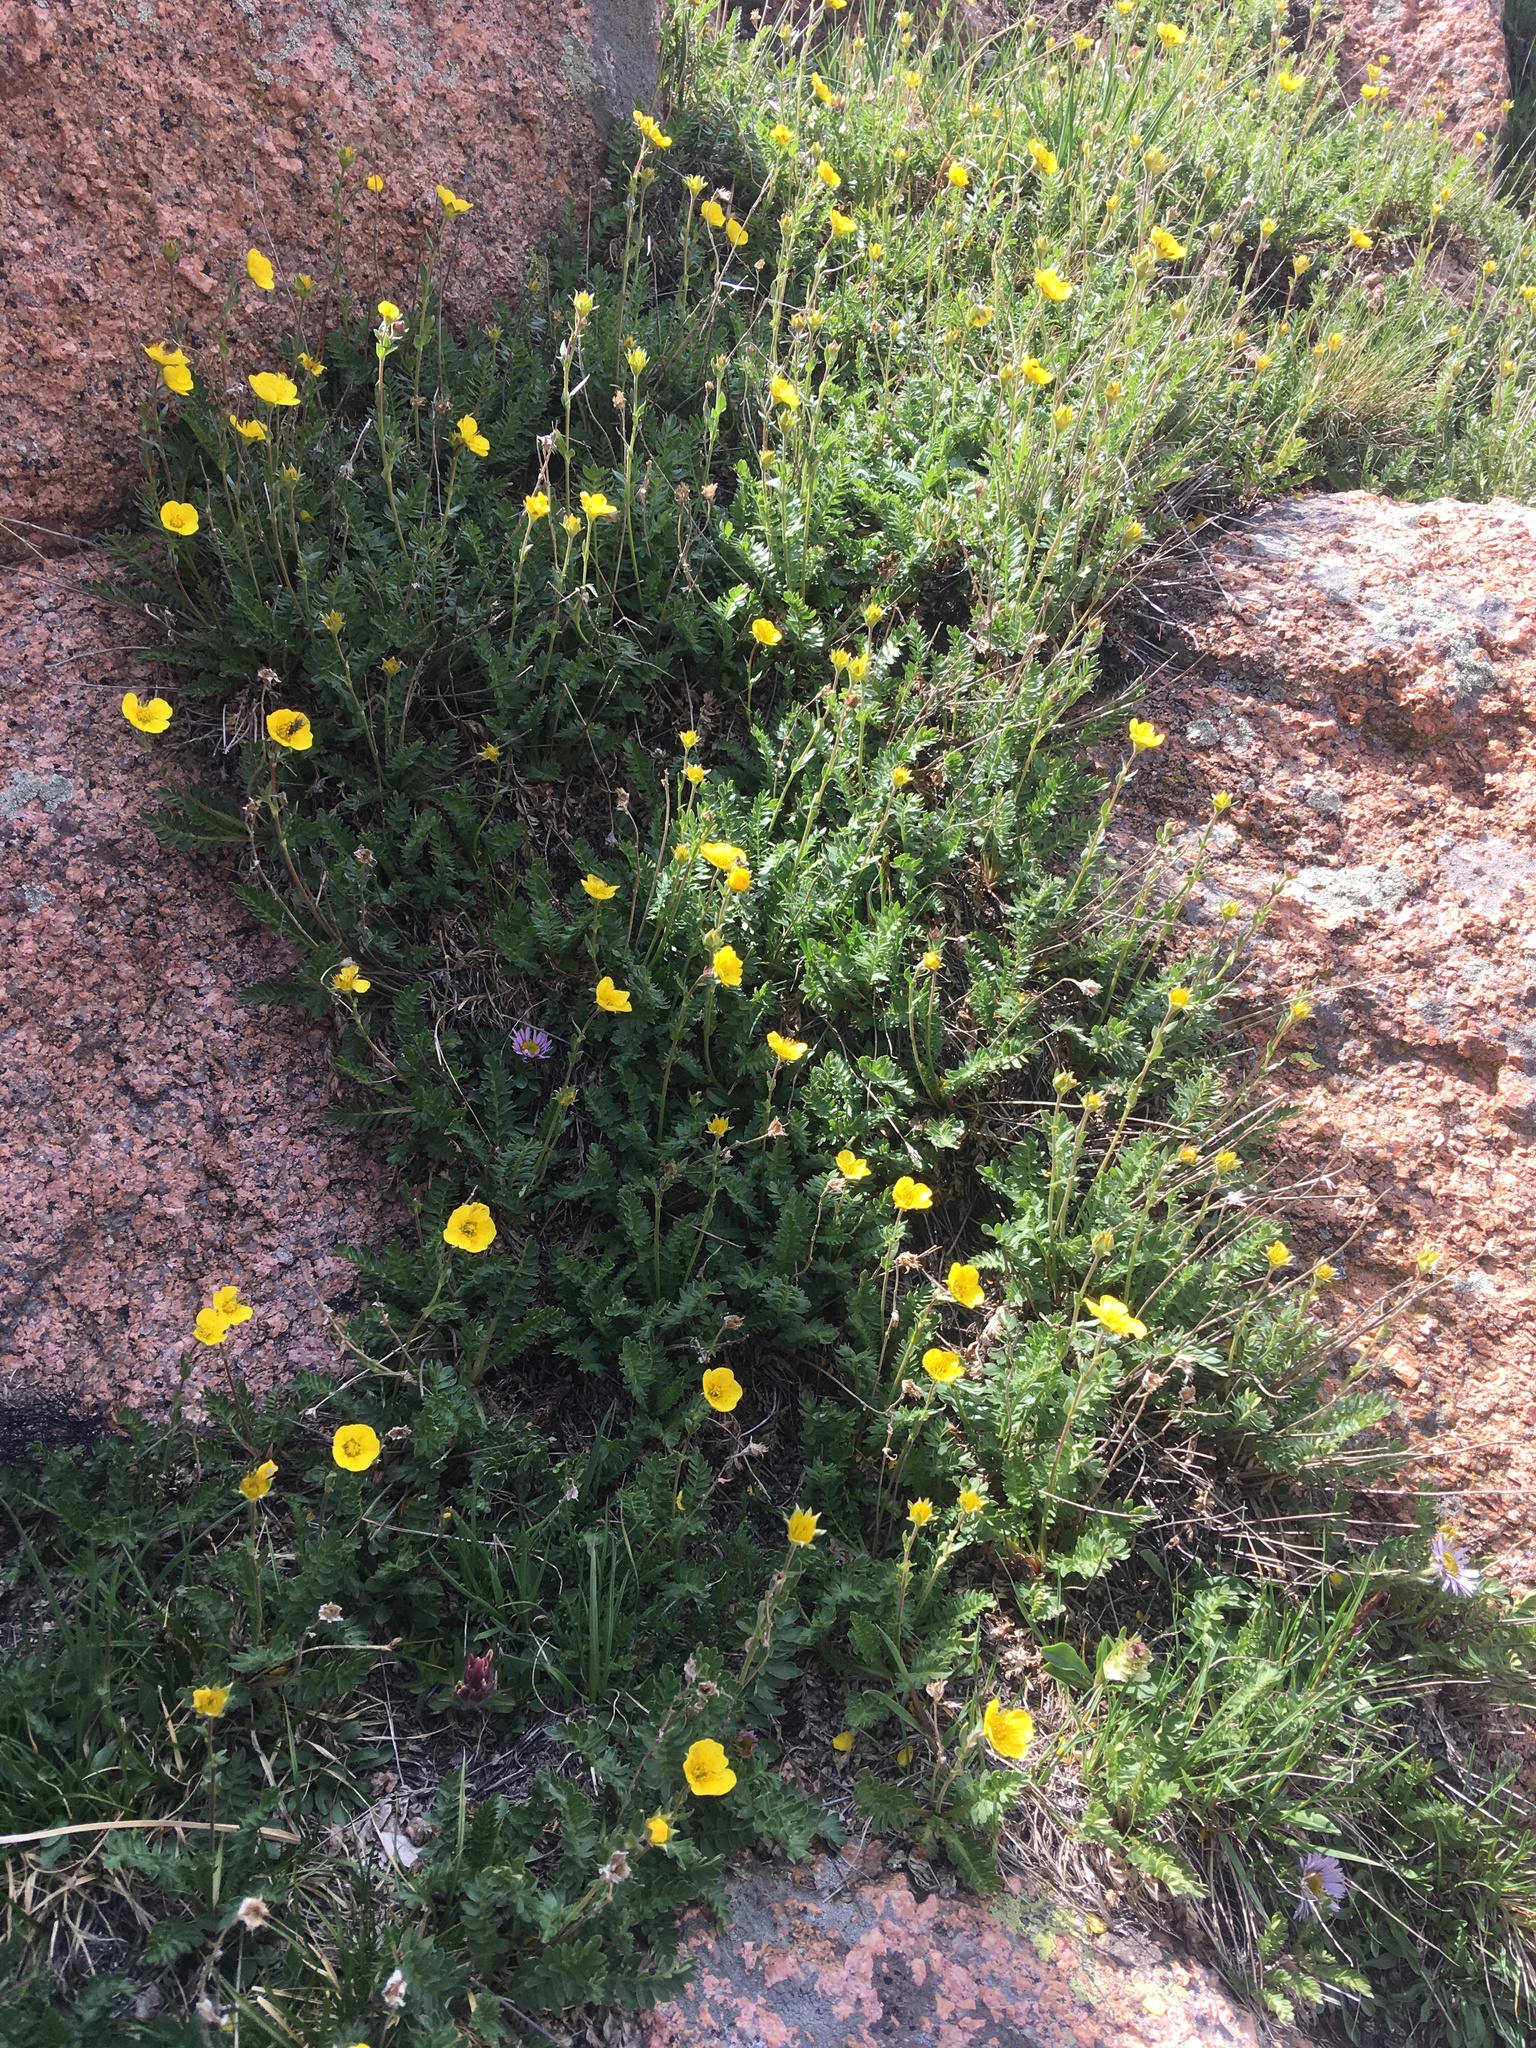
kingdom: Plantae
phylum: Tracheophyta
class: Magnoliopsida
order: Rosales
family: Rosaceae
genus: Geum
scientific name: Geum rossii
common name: Alpine avens
